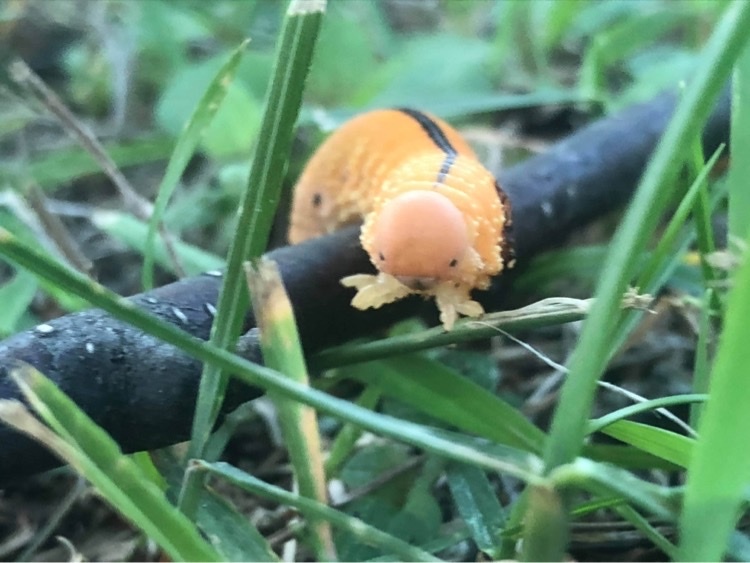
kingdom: Animalia
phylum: Arthropoda
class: Insecta
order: Hymenoptera
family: Cimbicidae
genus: Cimbex
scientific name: Cimbex americana
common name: Elm sawfly
